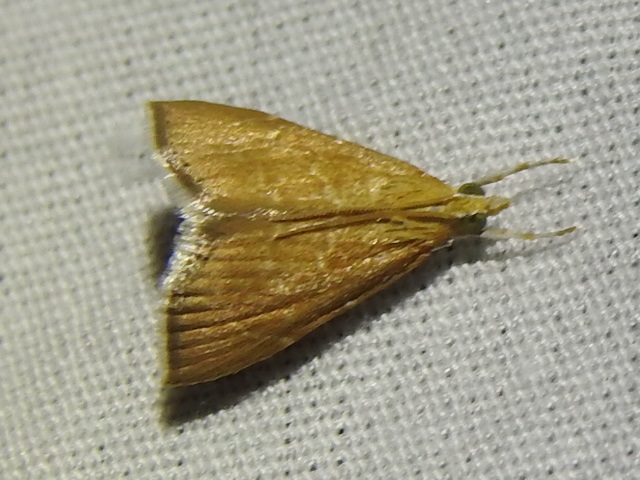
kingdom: Animalia
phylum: Arthropoda
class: Insecta
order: Lepidoptera
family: Crambidae
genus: Glaphyria
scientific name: Glaphyria invisalis
